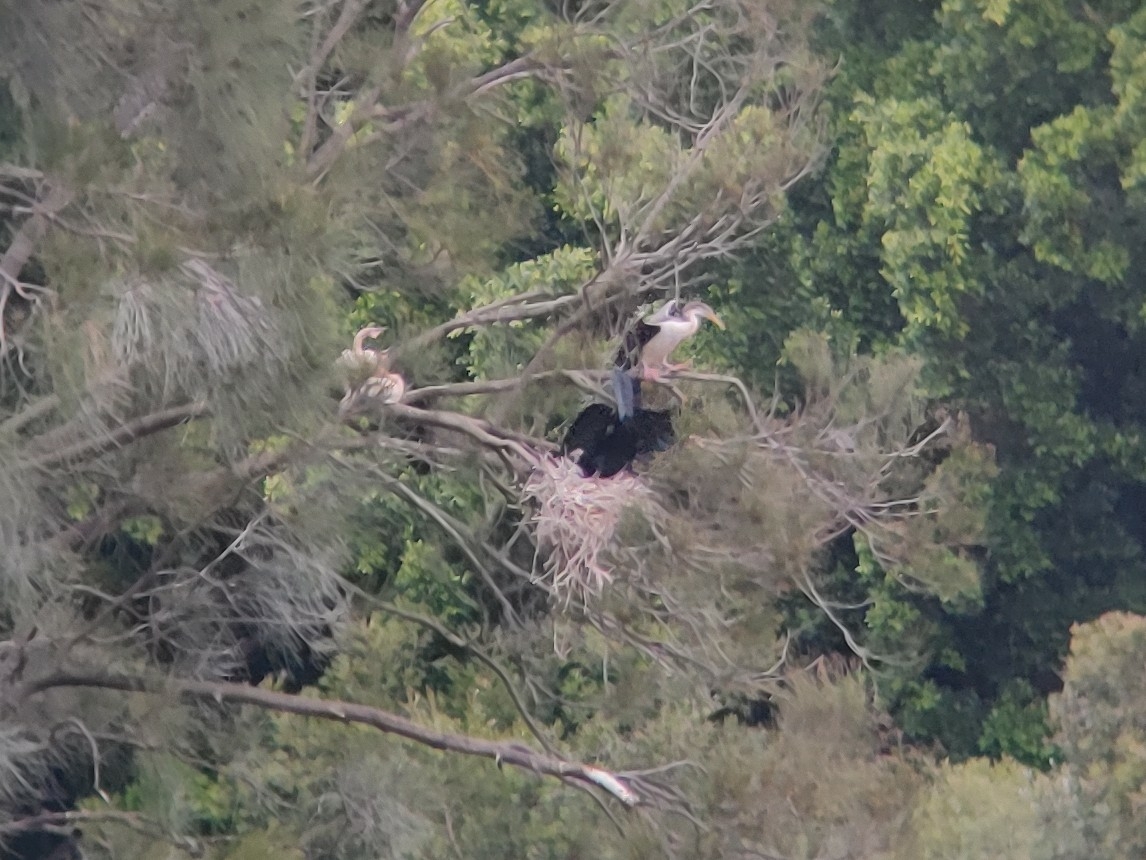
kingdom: Animalia
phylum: Chordata
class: Aves
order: Suliformes
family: Anhingidae
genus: Anhinga
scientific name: Anhinga novaehollandiae
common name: Australasian darter
